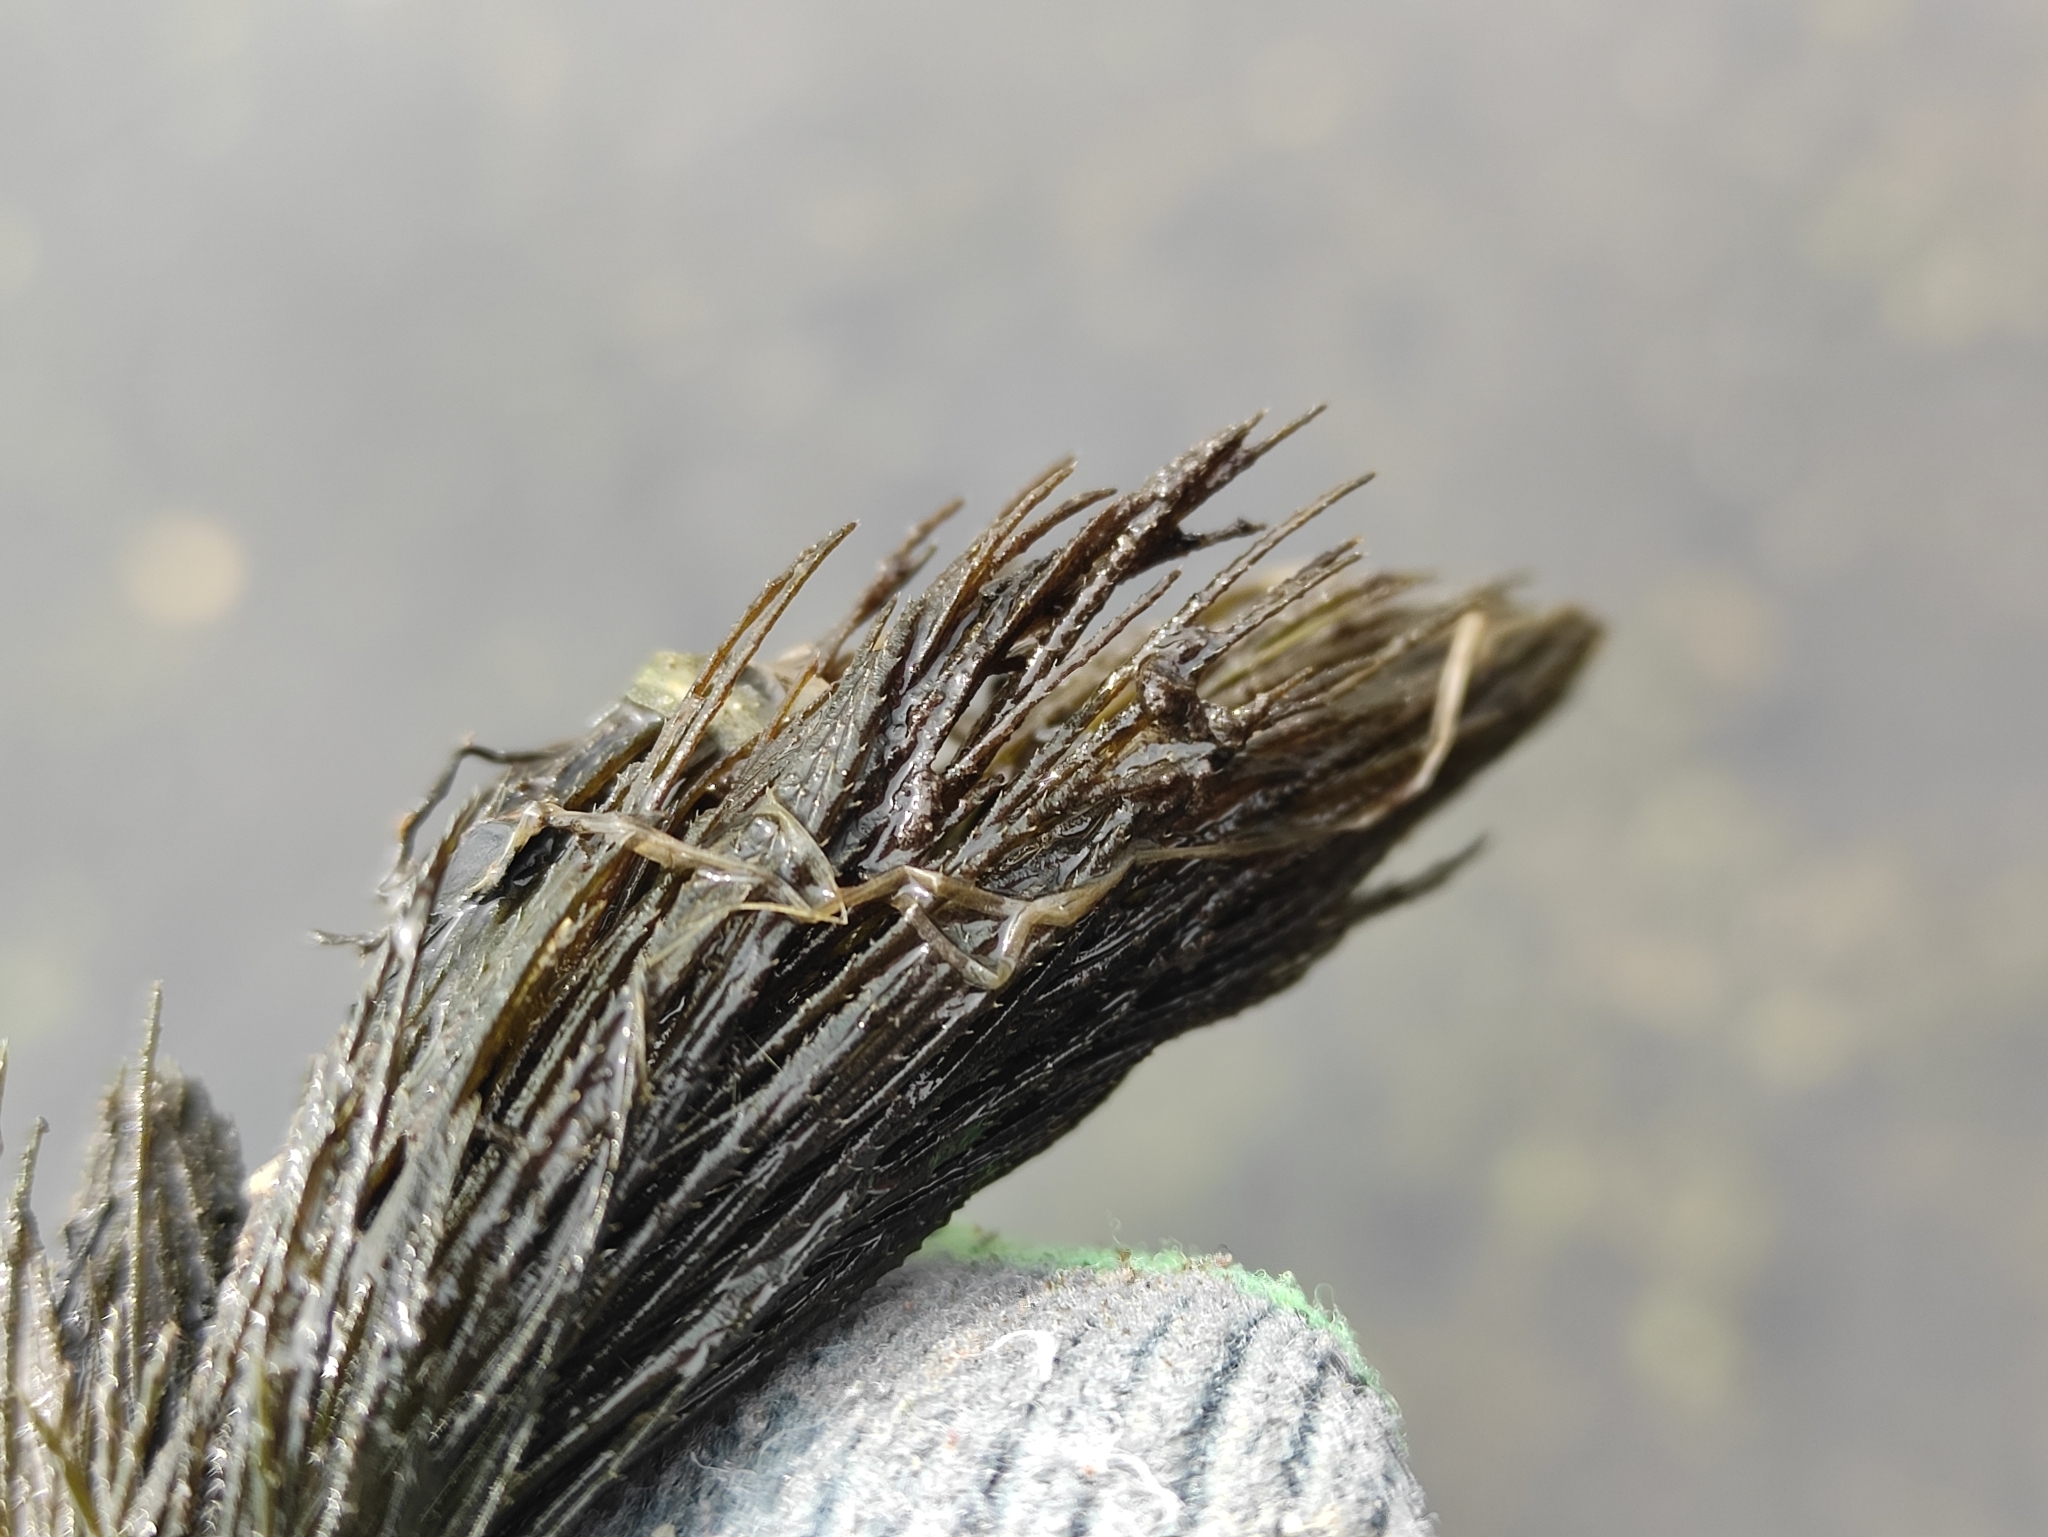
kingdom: Plantae
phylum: Tracheophyta
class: Magnoliopsida
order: Ceratophyllales
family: Ceratophyllaceae
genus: Ceratophyllum
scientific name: Ceratophyllum demersum
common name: Rigid hornwort
